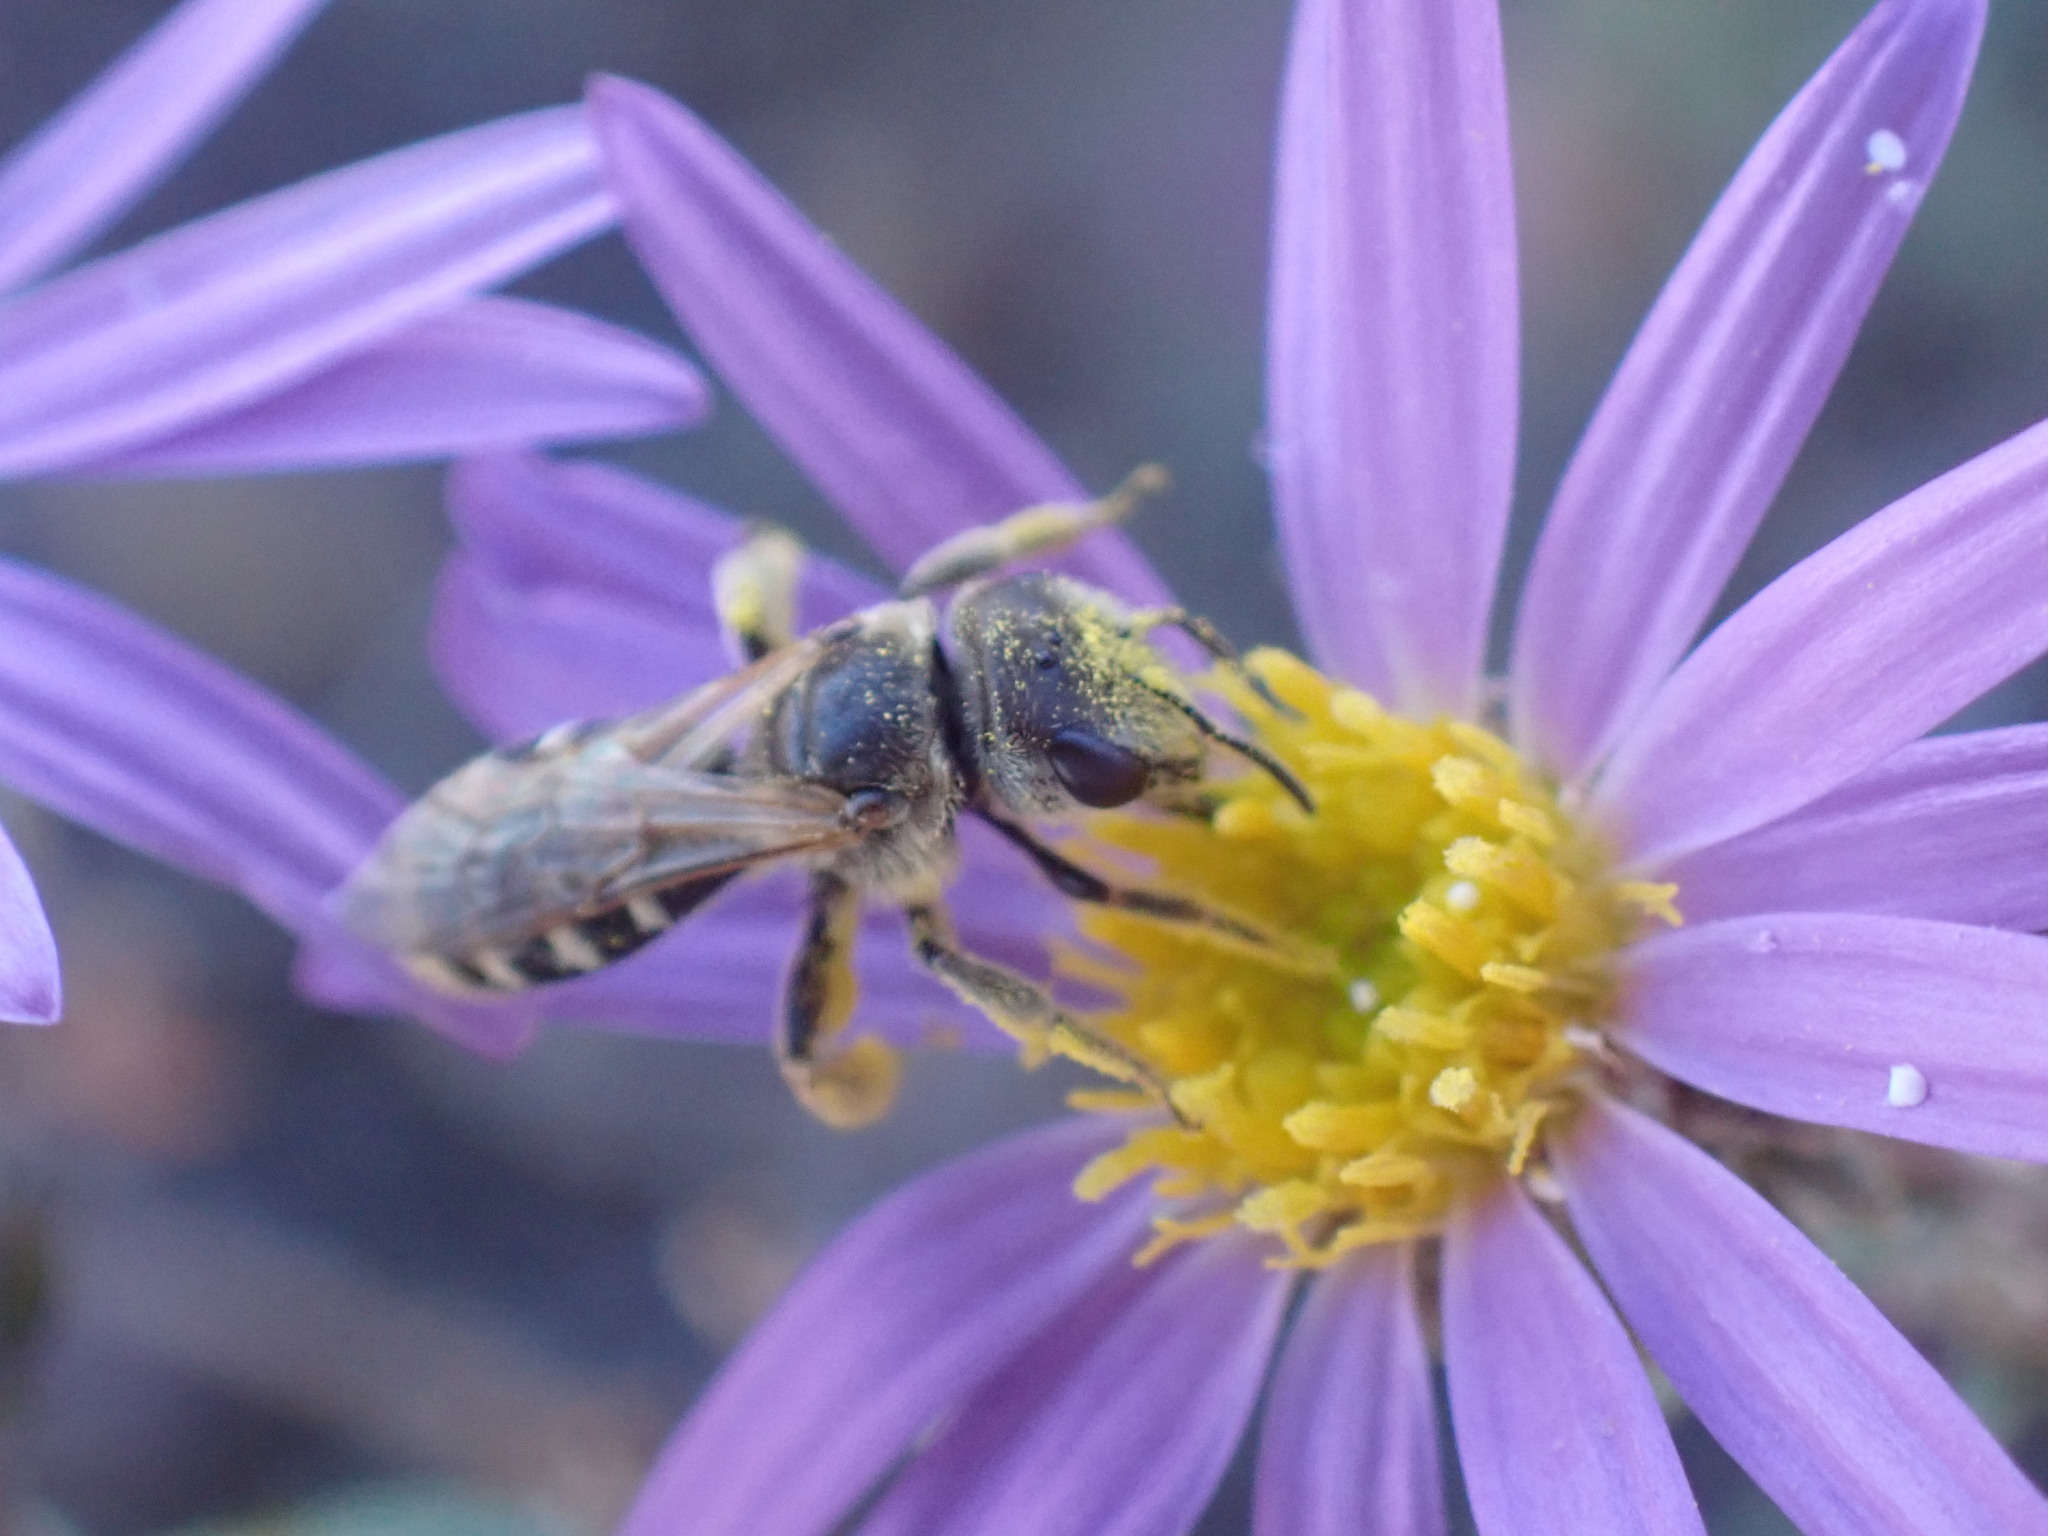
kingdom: Animalia
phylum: Arthropoda
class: Insecta
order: Hymenoptera
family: Halictidae
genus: Halictus
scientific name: Halictus ligatus
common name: Ligated furrow bee
